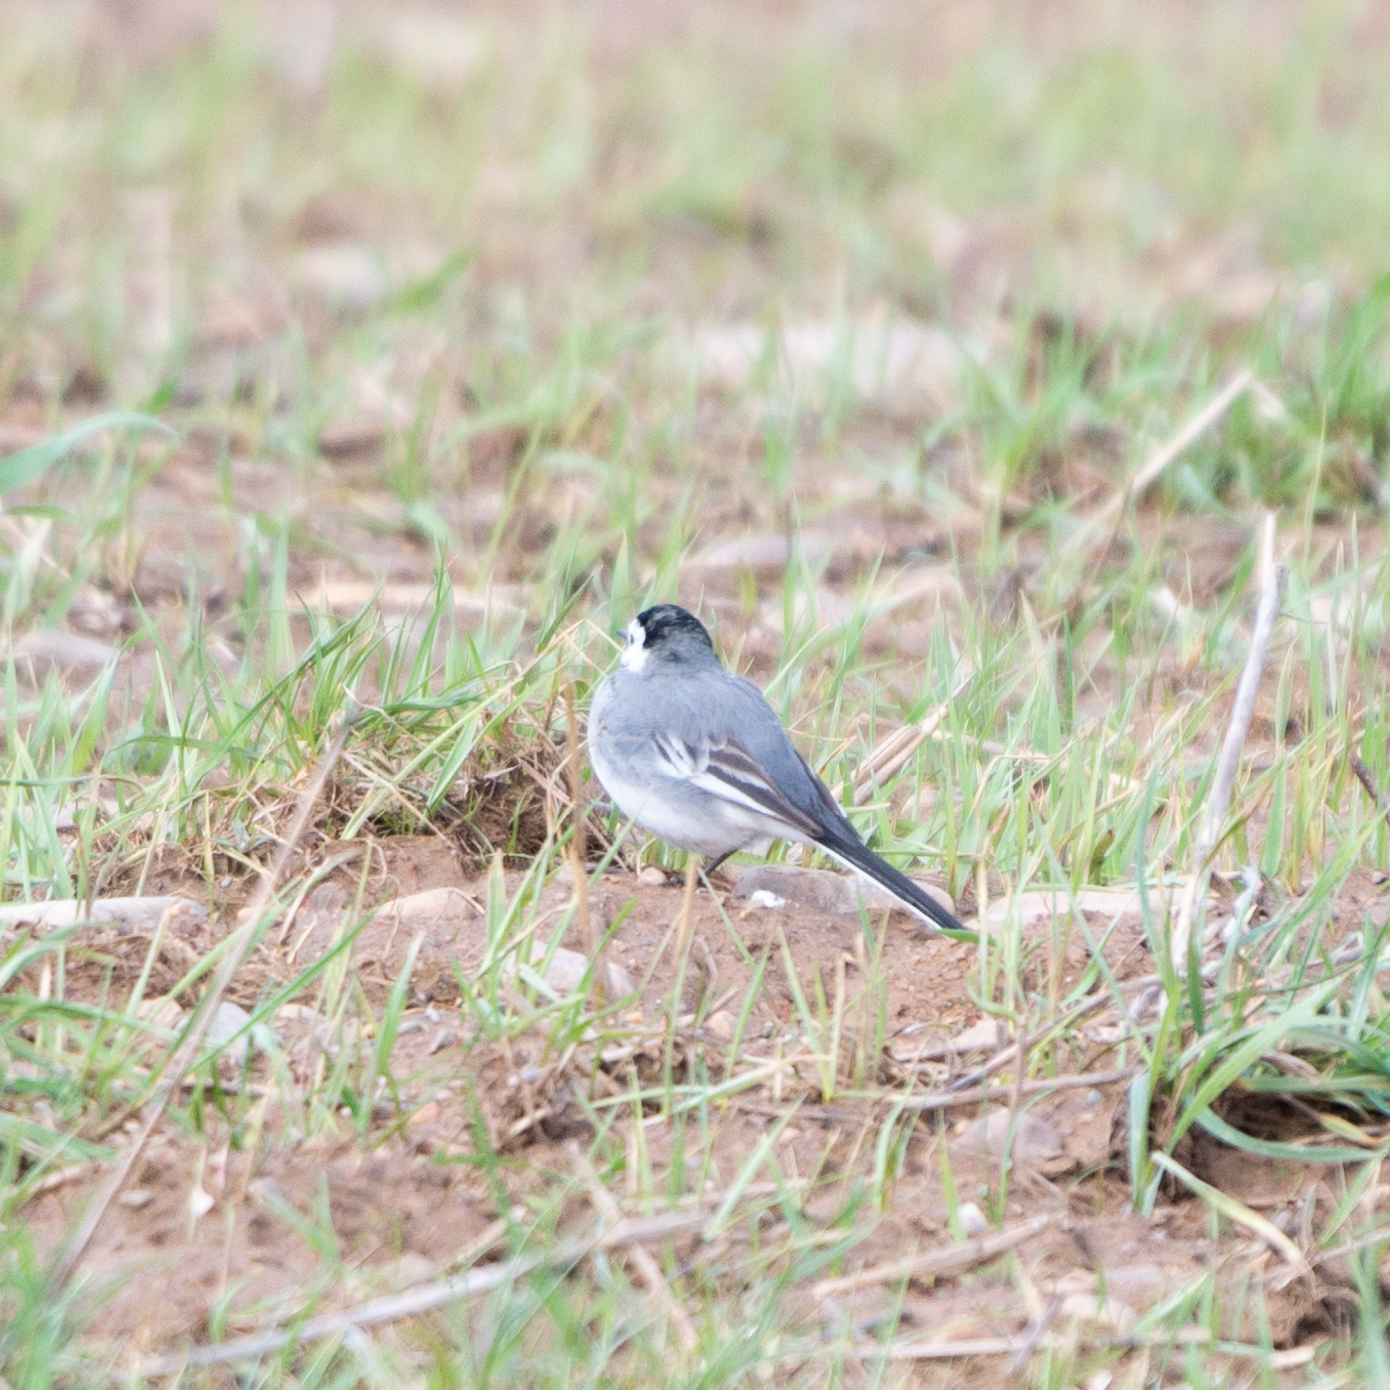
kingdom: Animalia
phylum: Chordata
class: Aves
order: Passeriformes
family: Motacillidae
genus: Motacilla
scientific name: Motacilla alba
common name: White wagtail
